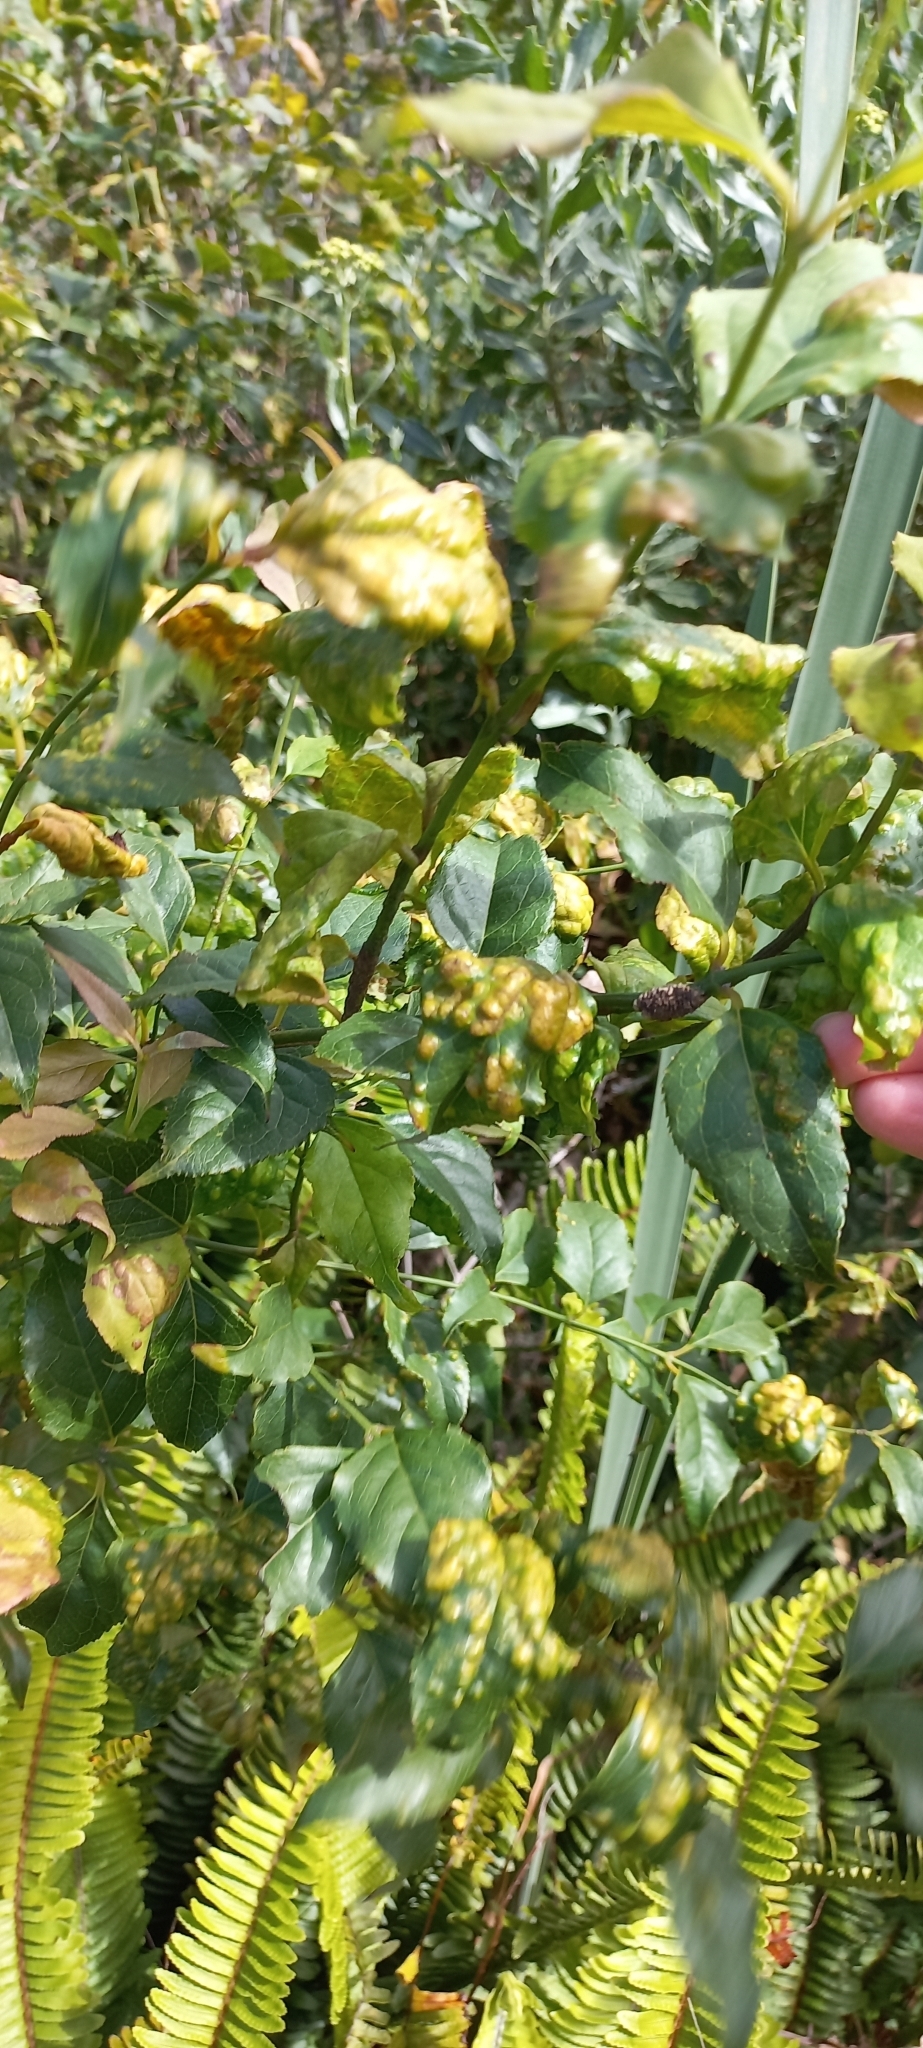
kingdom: Plantae
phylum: Tracheophyta
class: Magnoliopsida
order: Lamiales
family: Stilbaceae
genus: Halleria
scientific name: Halleria lucida
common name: Tree fuschia
